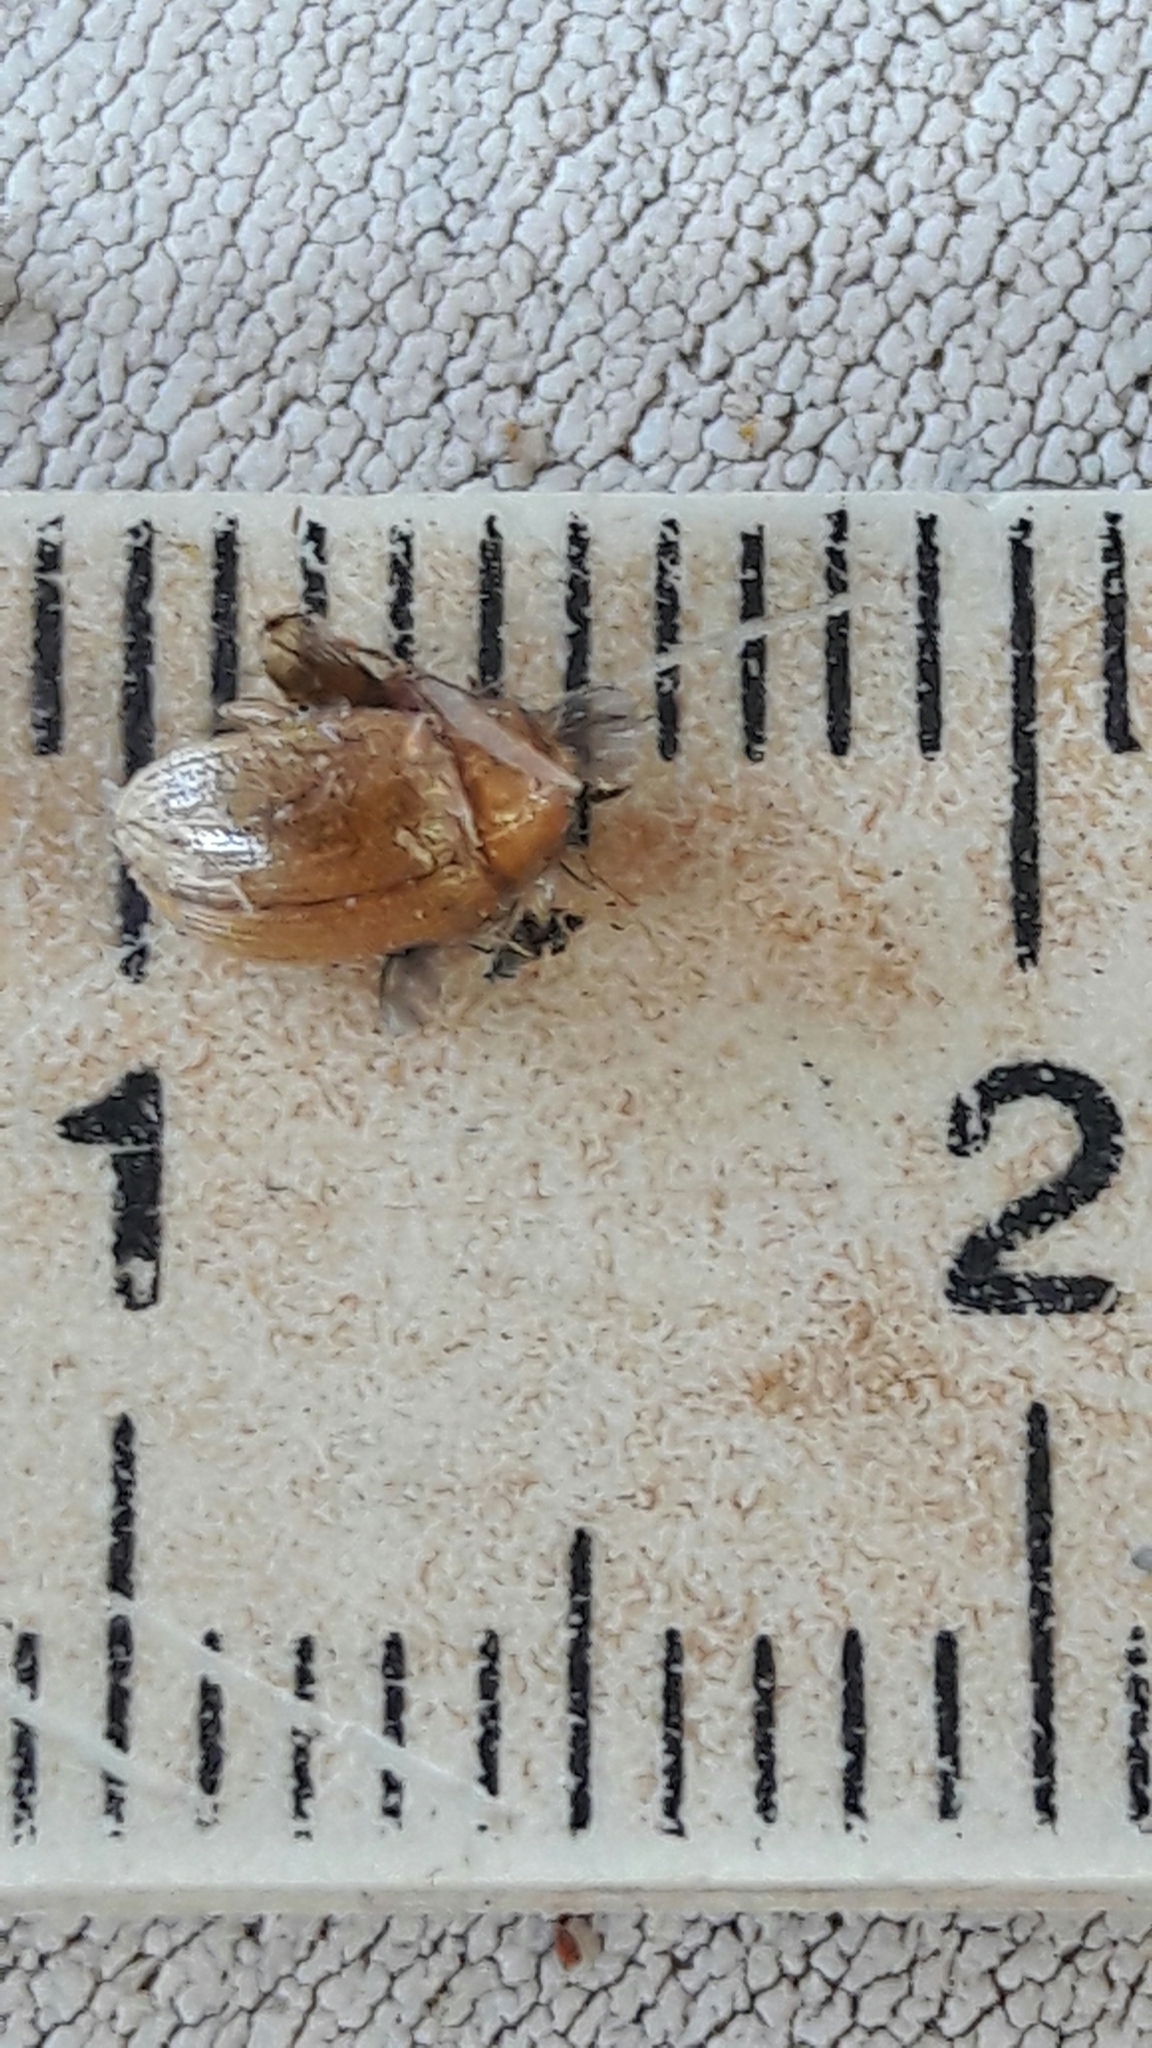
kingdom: Animalia
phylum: Arthropoda
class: Insecta
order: Coleoptera
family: Chrysomelidae
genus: Anisodera
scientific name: Anisodera ferruginea
